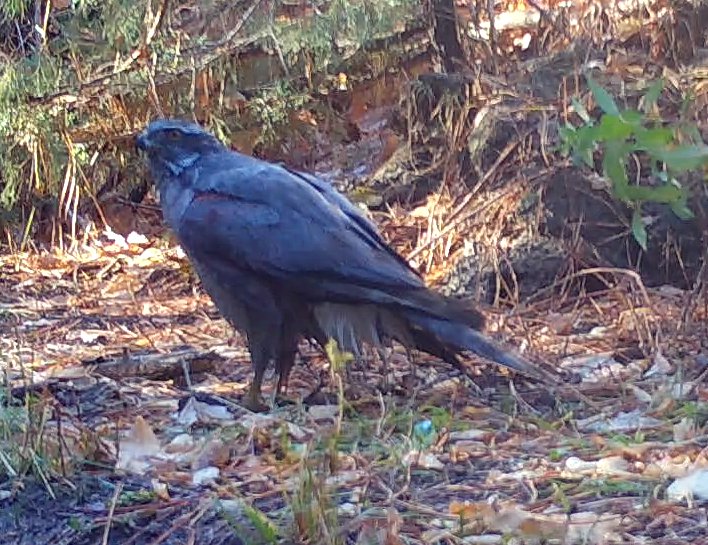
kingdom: Animalia
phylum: Chordata
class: Aves
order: Accipitriformes
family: Accipitridae
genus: Accipiter
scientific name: Accipiter cooperii
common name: Cooper's hawk
